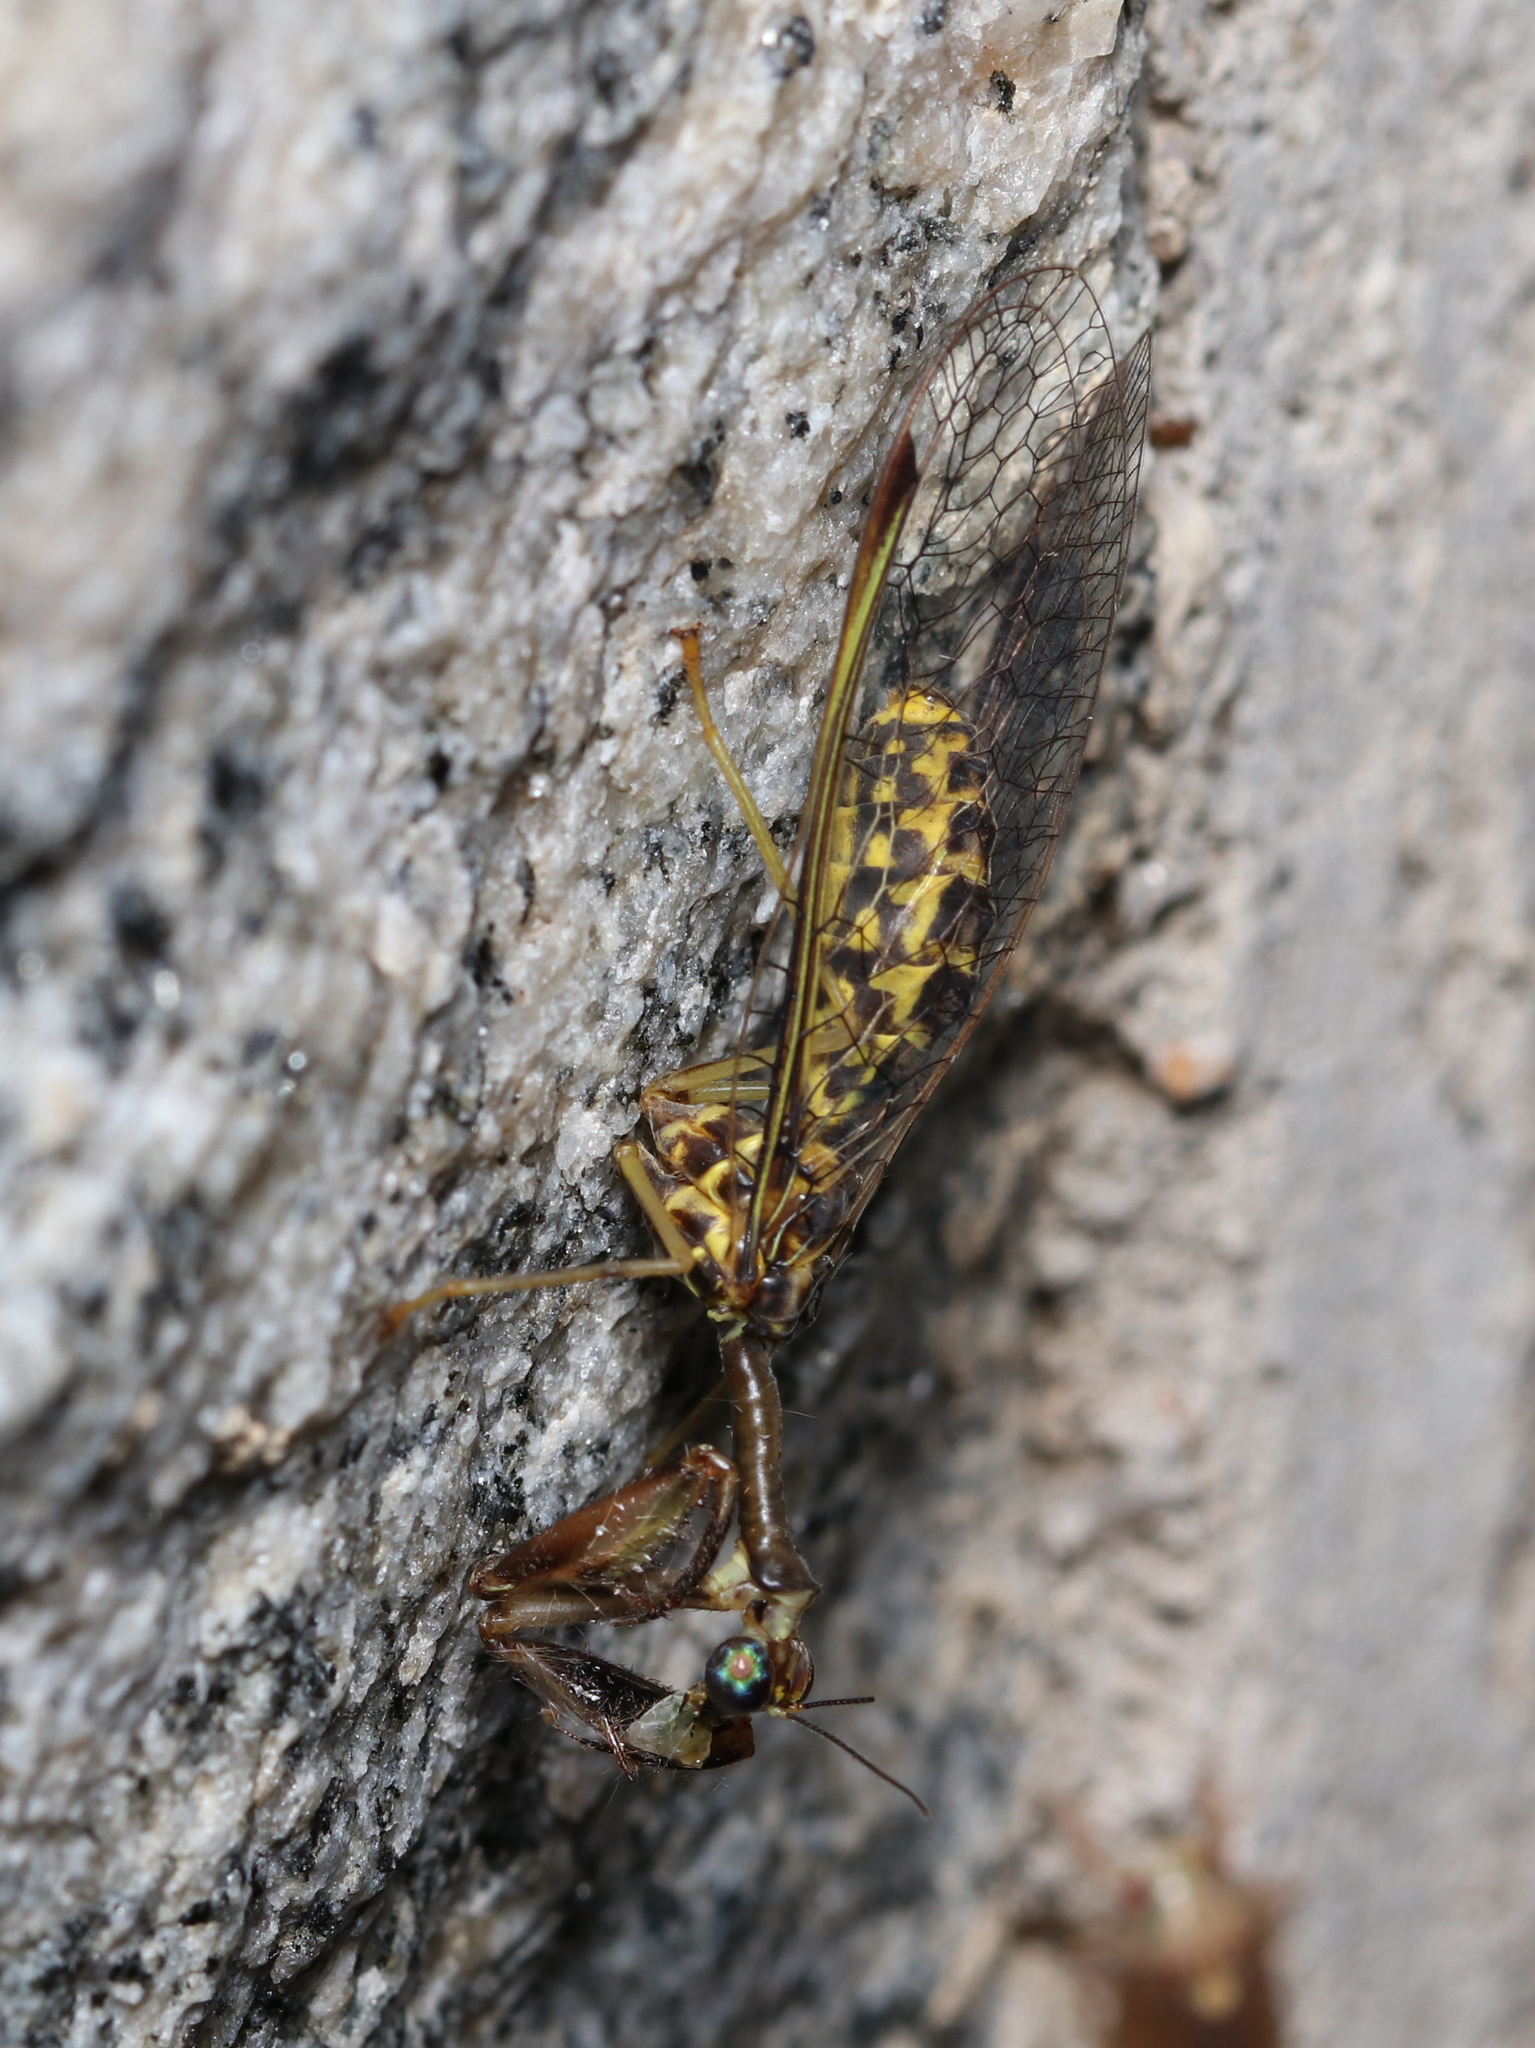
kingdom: Animalia
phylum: Arthropoda
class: Insecta
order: Neuroptera
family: Mantispidae
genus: Dicromantispa
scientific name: Dicromantispa sayi
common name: Say's mantidfly
